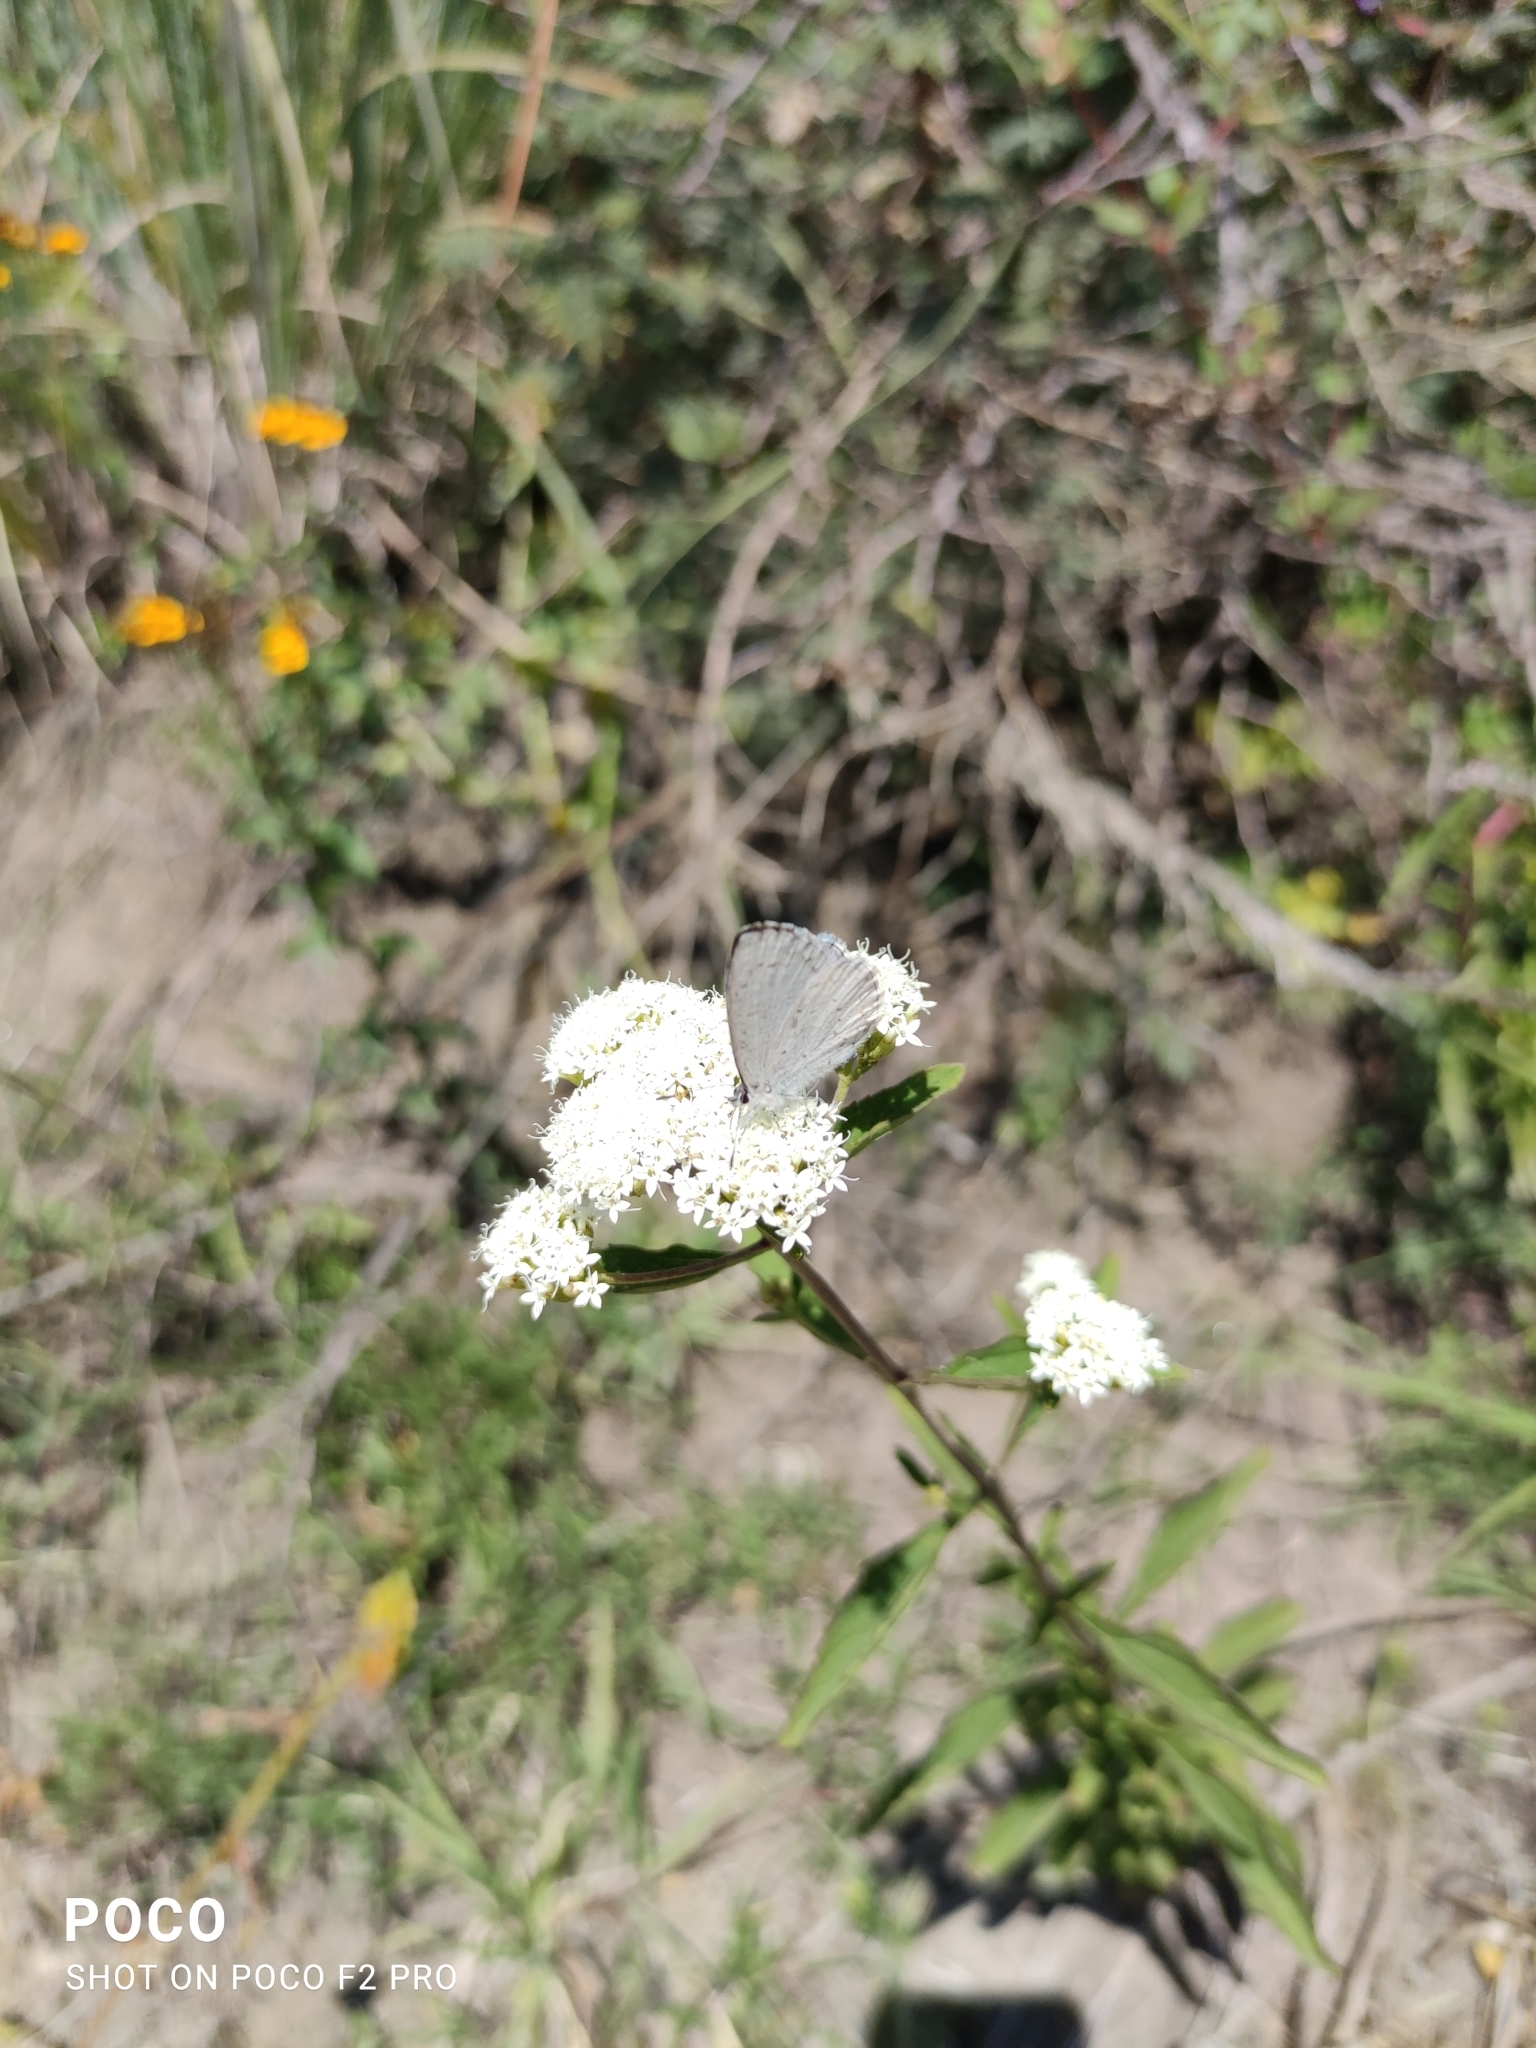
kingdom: Animalia
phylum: Arthropoda
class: Insecta
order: Lepidoptera
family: Lycaenidae
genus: Celastrina
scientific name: Celastrina ladon
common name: Spring azure
